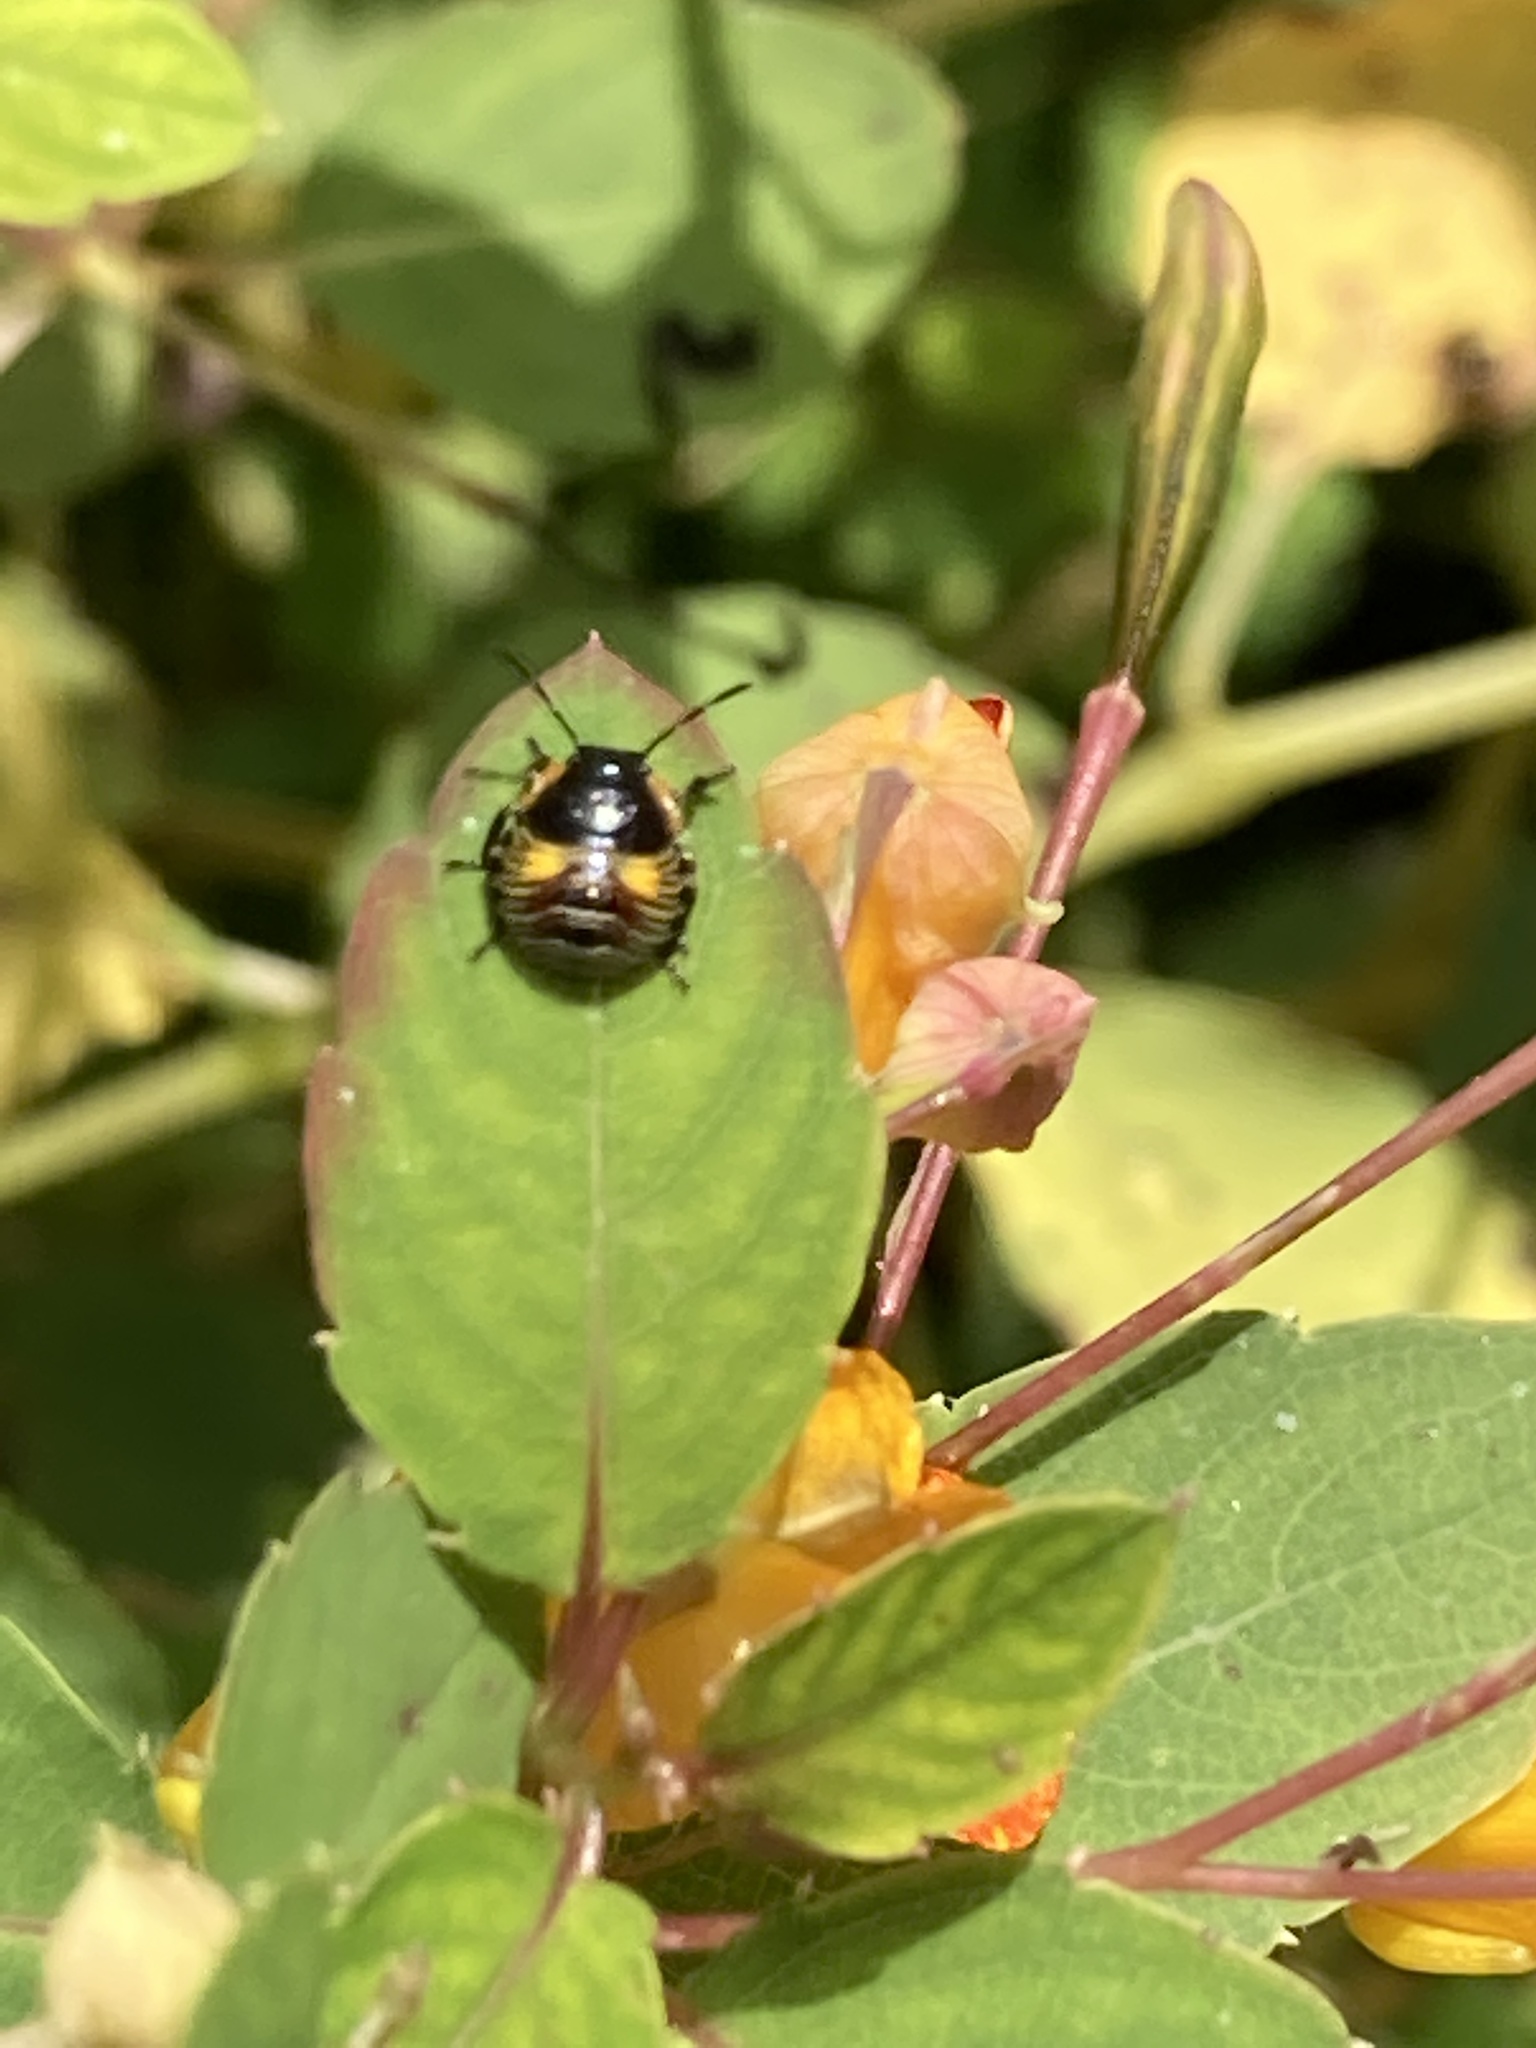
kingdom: Animalia
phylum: Arthropoda
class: Insecta
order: Hemiptera
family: Pentatomidae
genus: Chinavia
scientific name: Chinavia hilaris
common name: Green stink bug
